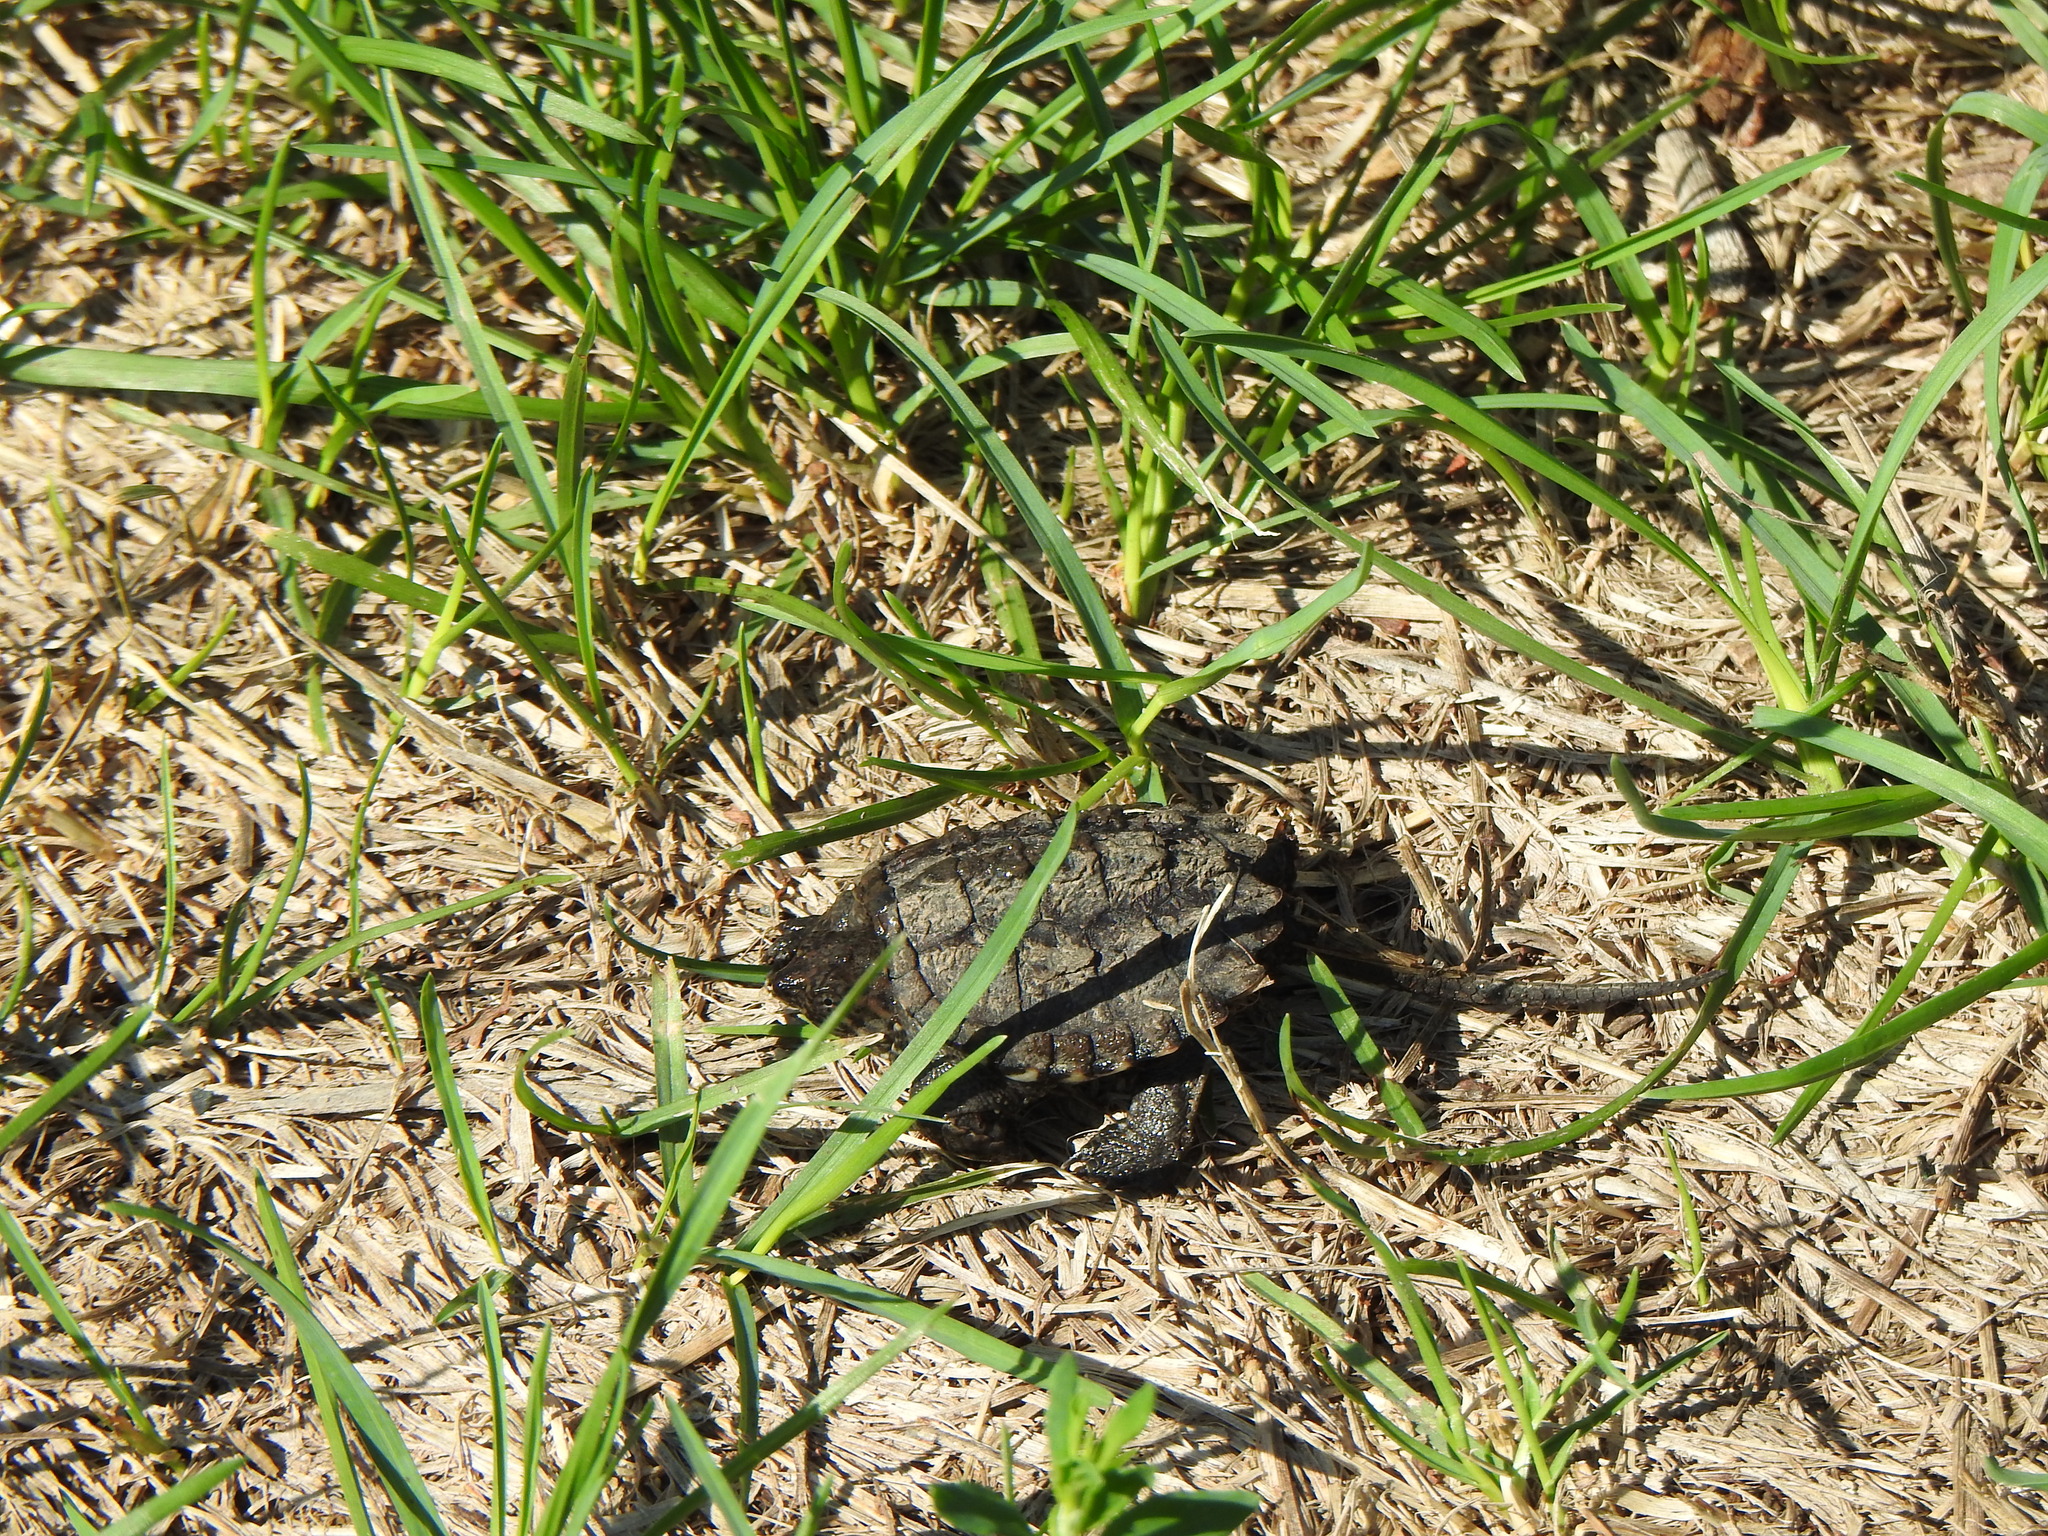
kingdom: Animalia
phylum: Chordata
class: Testudines
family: Chelydridae
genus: Chelydra
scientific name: Chelydra serpentina
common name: Common snapping turtle
